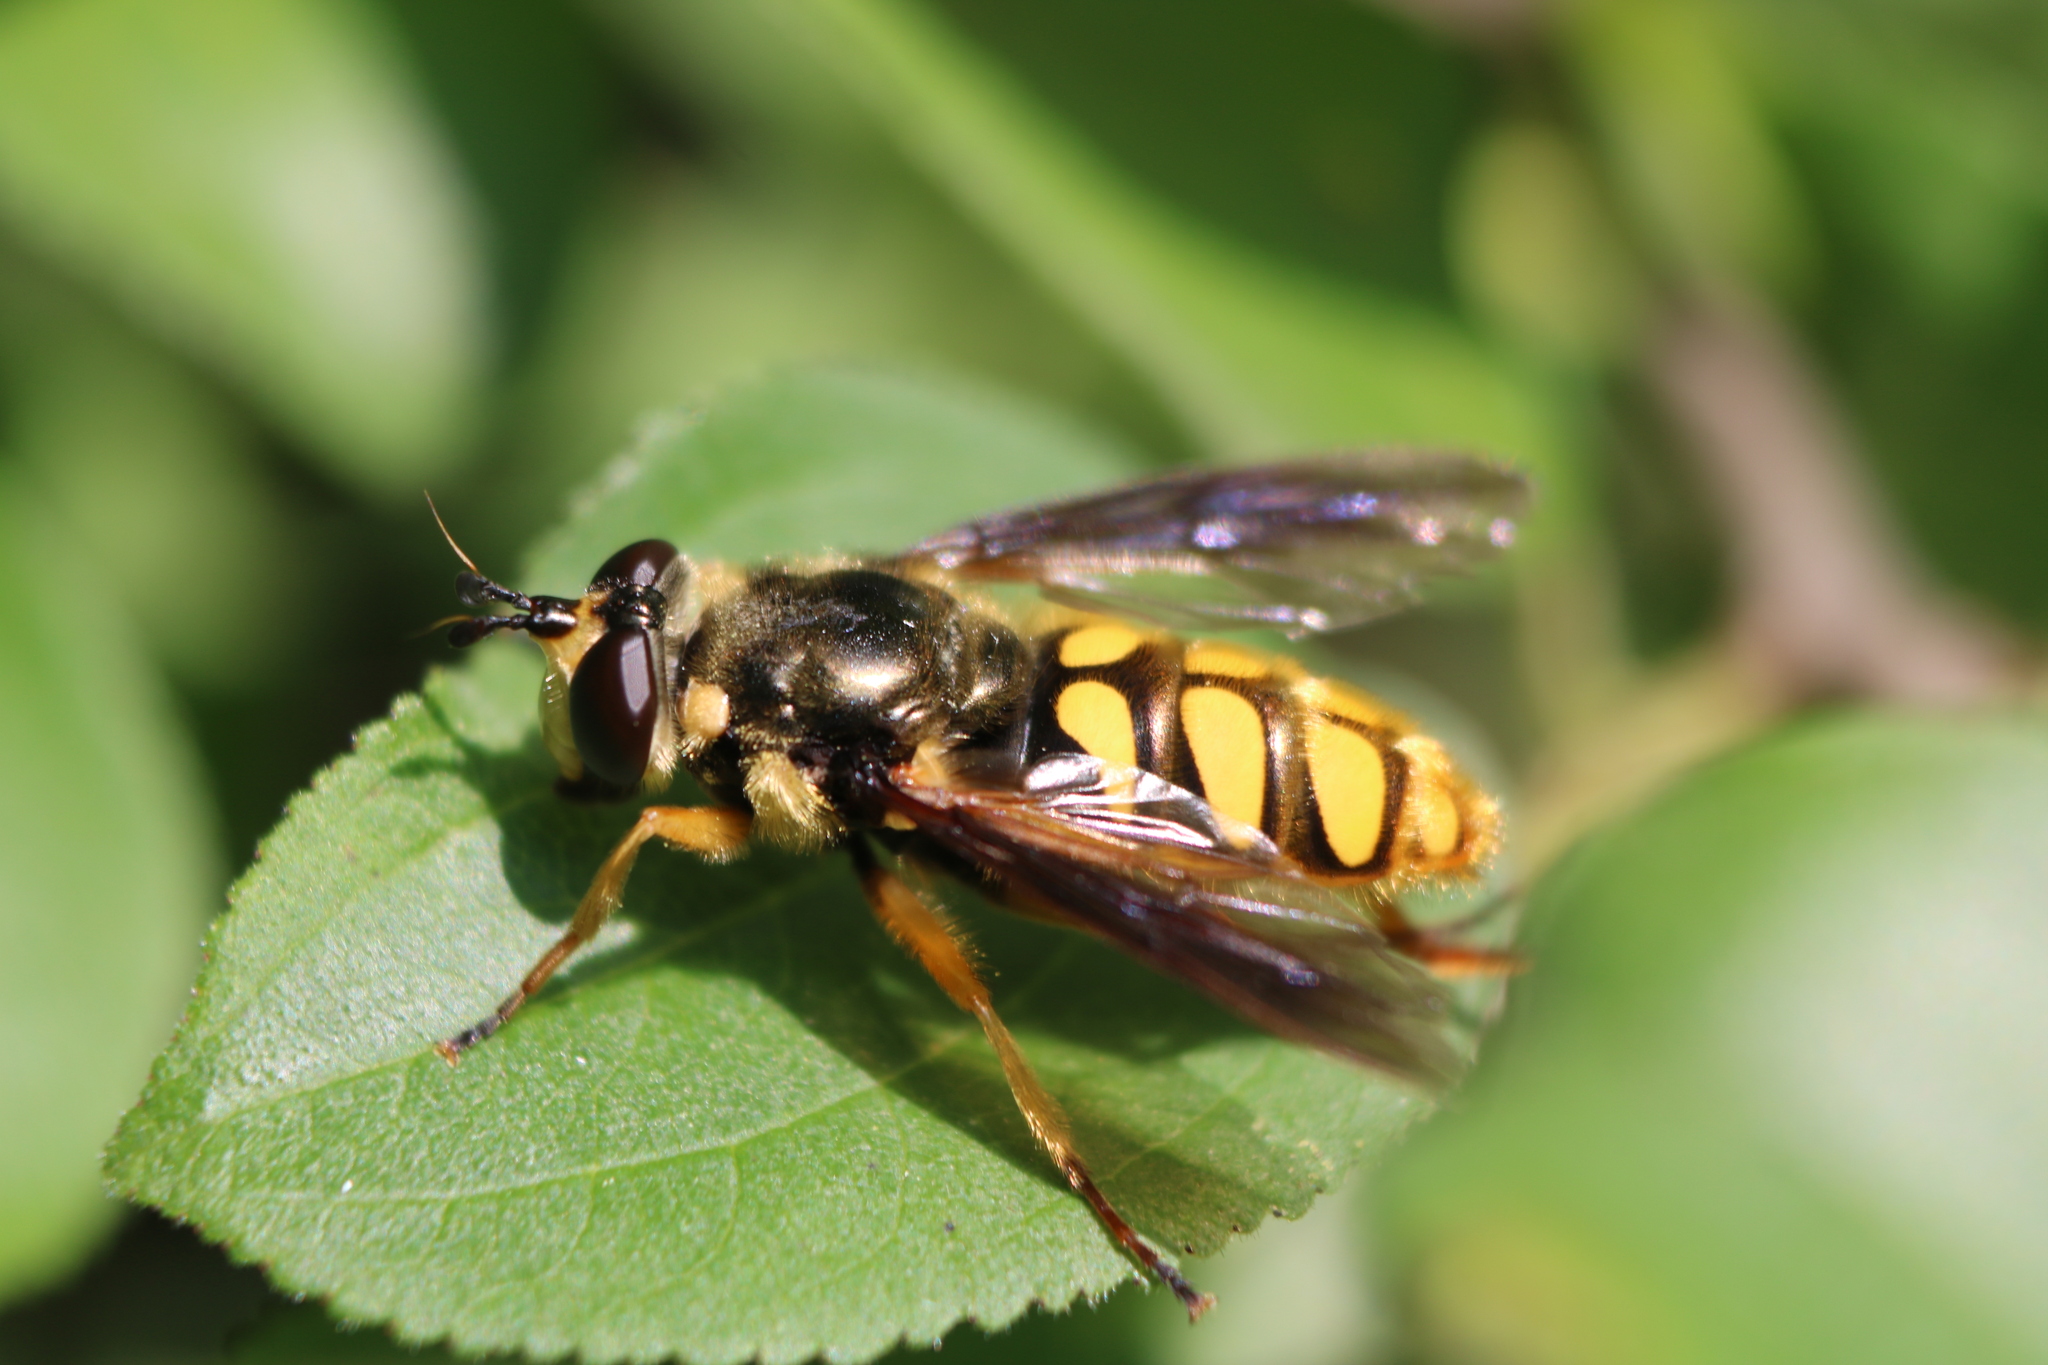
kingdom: Animalia
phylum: Arthropoda
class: Insecta
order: Diptera
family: Syrphidae
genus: Somula
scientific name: Somula decora
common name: Spotted wood fly
